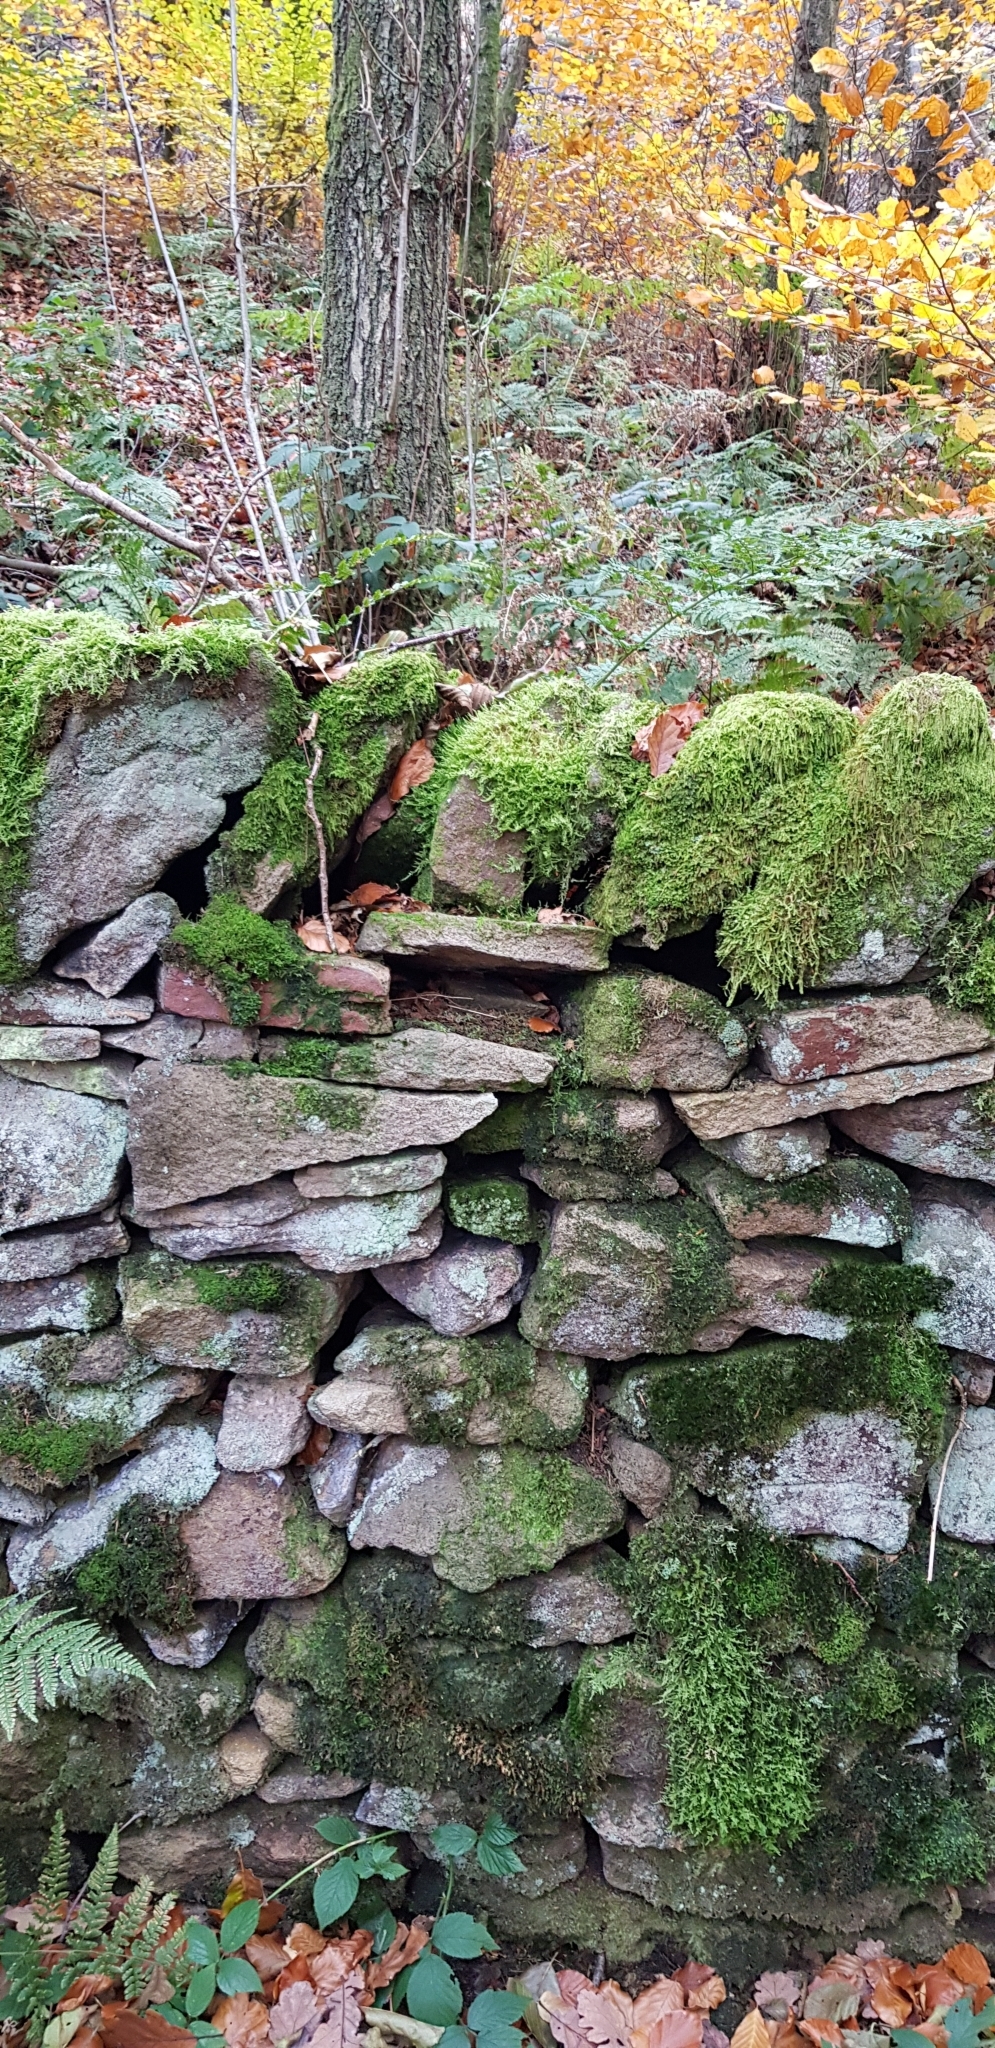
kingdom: Plantae
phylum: Bryophyta
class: Bryopsida
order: Hypnales
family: Hypnaceae
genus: Hypnum
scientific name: Hypnum andoi
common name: Ando's plait moss
